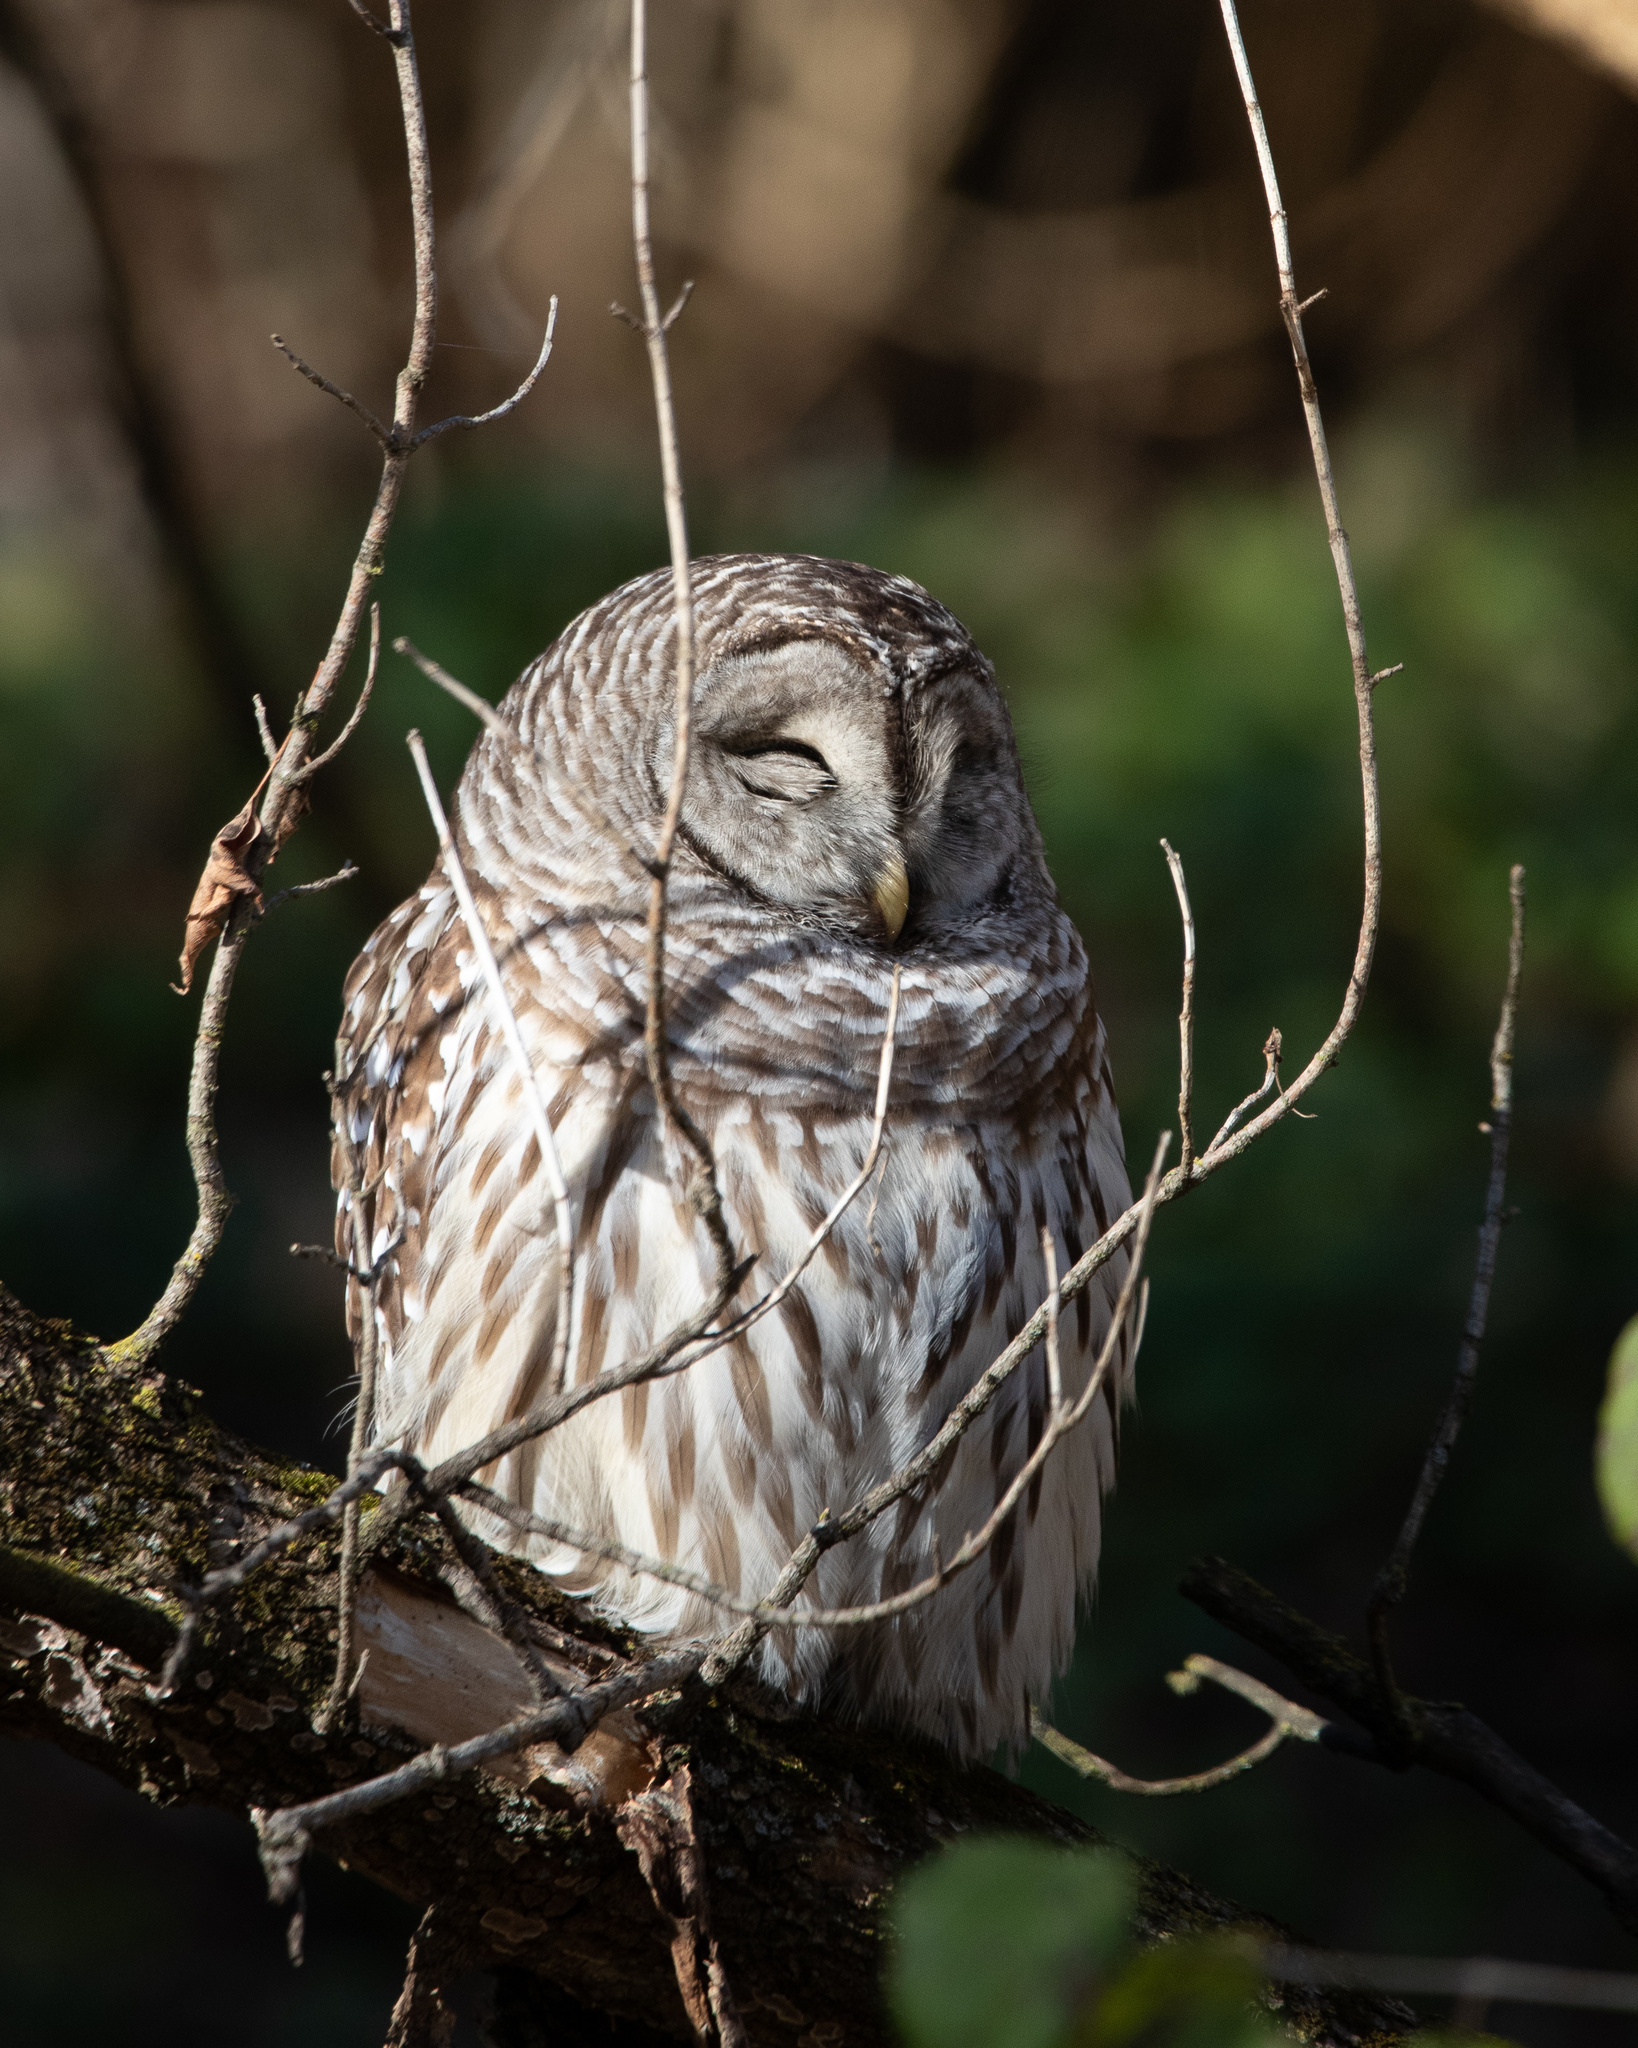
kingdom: Animalia
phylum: Chordata
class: Aves
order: Strigiformes
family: Strigidae
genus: Strix
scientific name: Strix varia
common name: Barred owl
